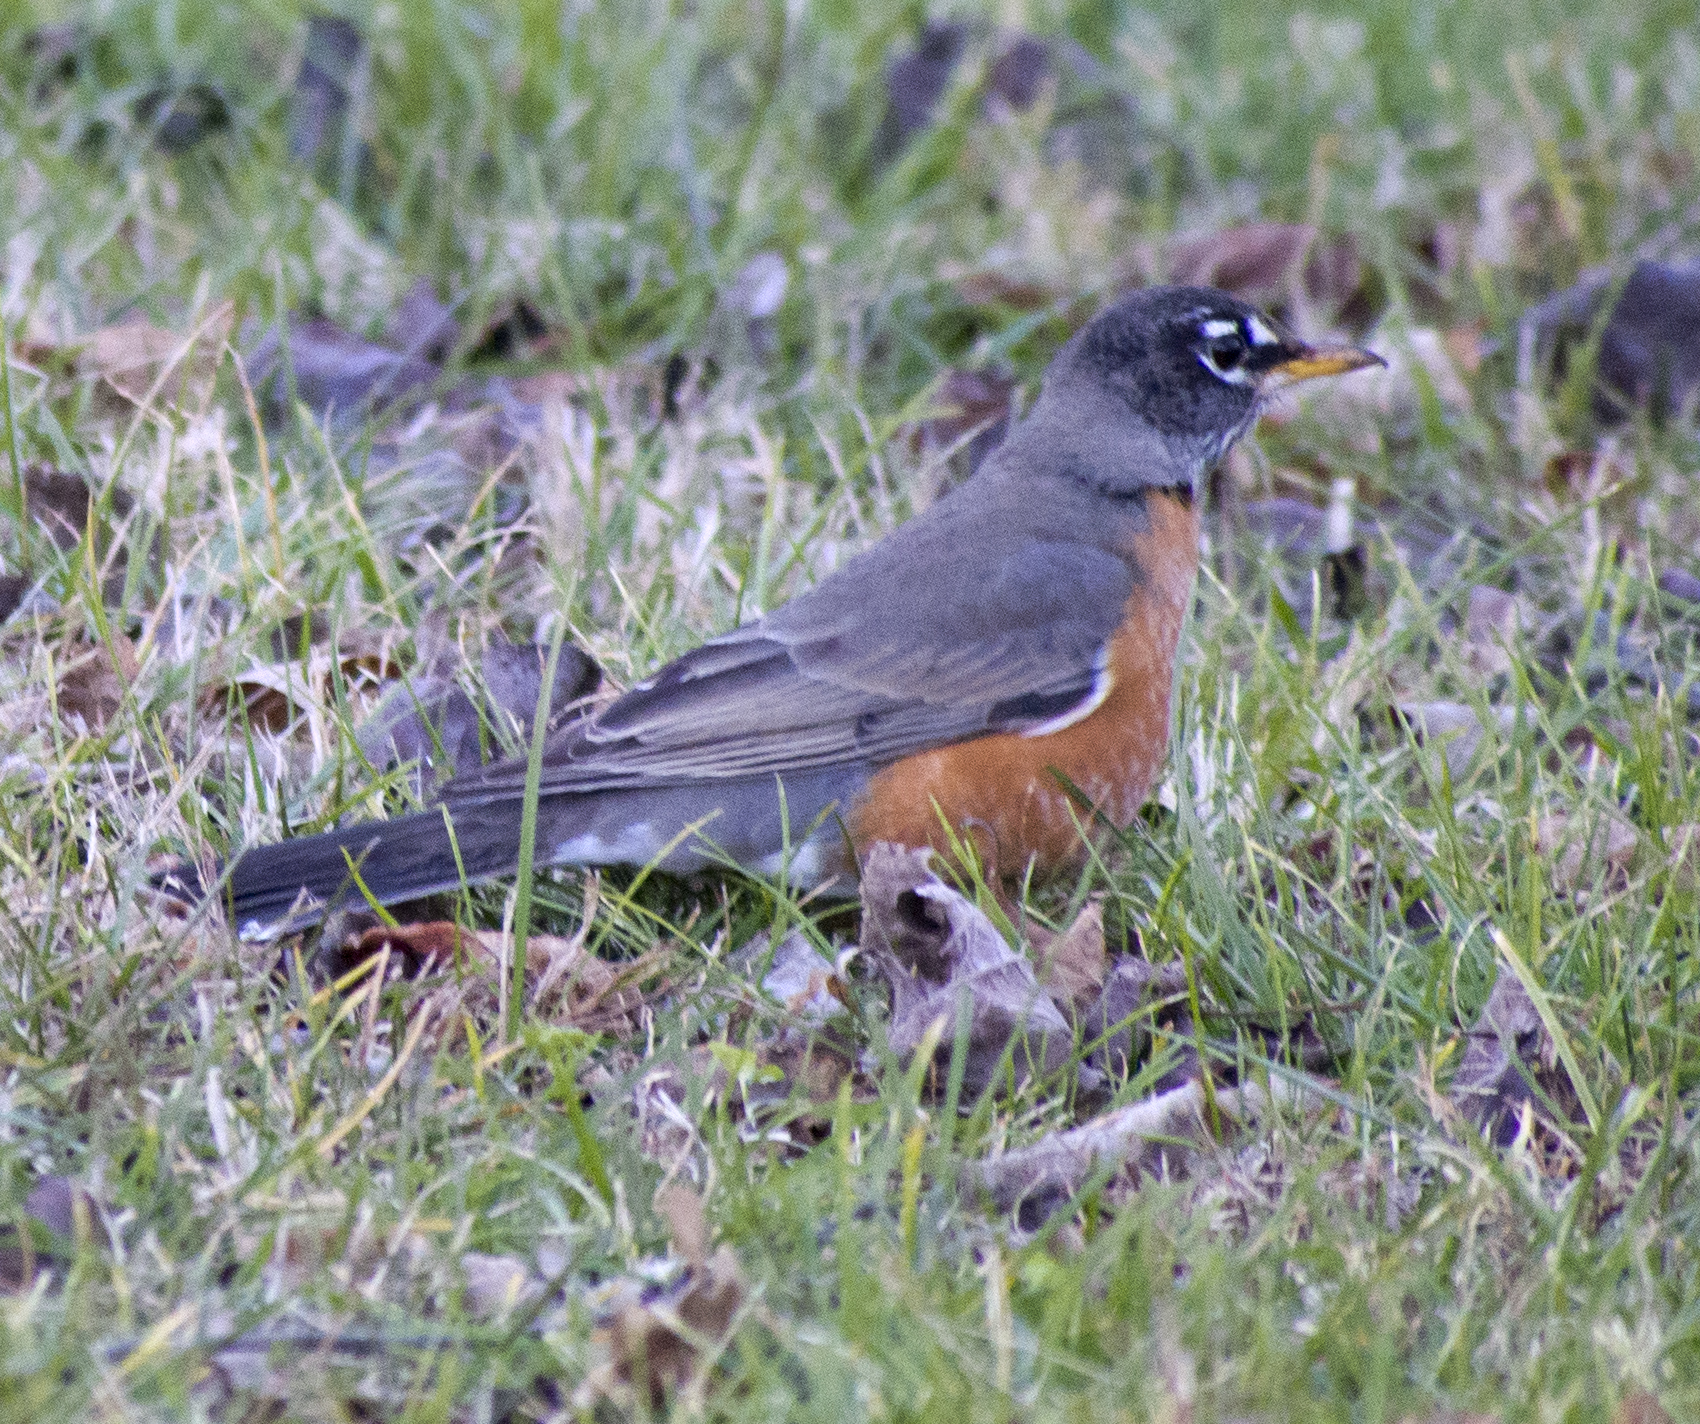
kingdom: Animalia
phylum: Chordata
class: Aves
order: Passeriformes
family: Turdidae
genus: Turdus
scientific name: Turdus migratorius
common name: American robin
